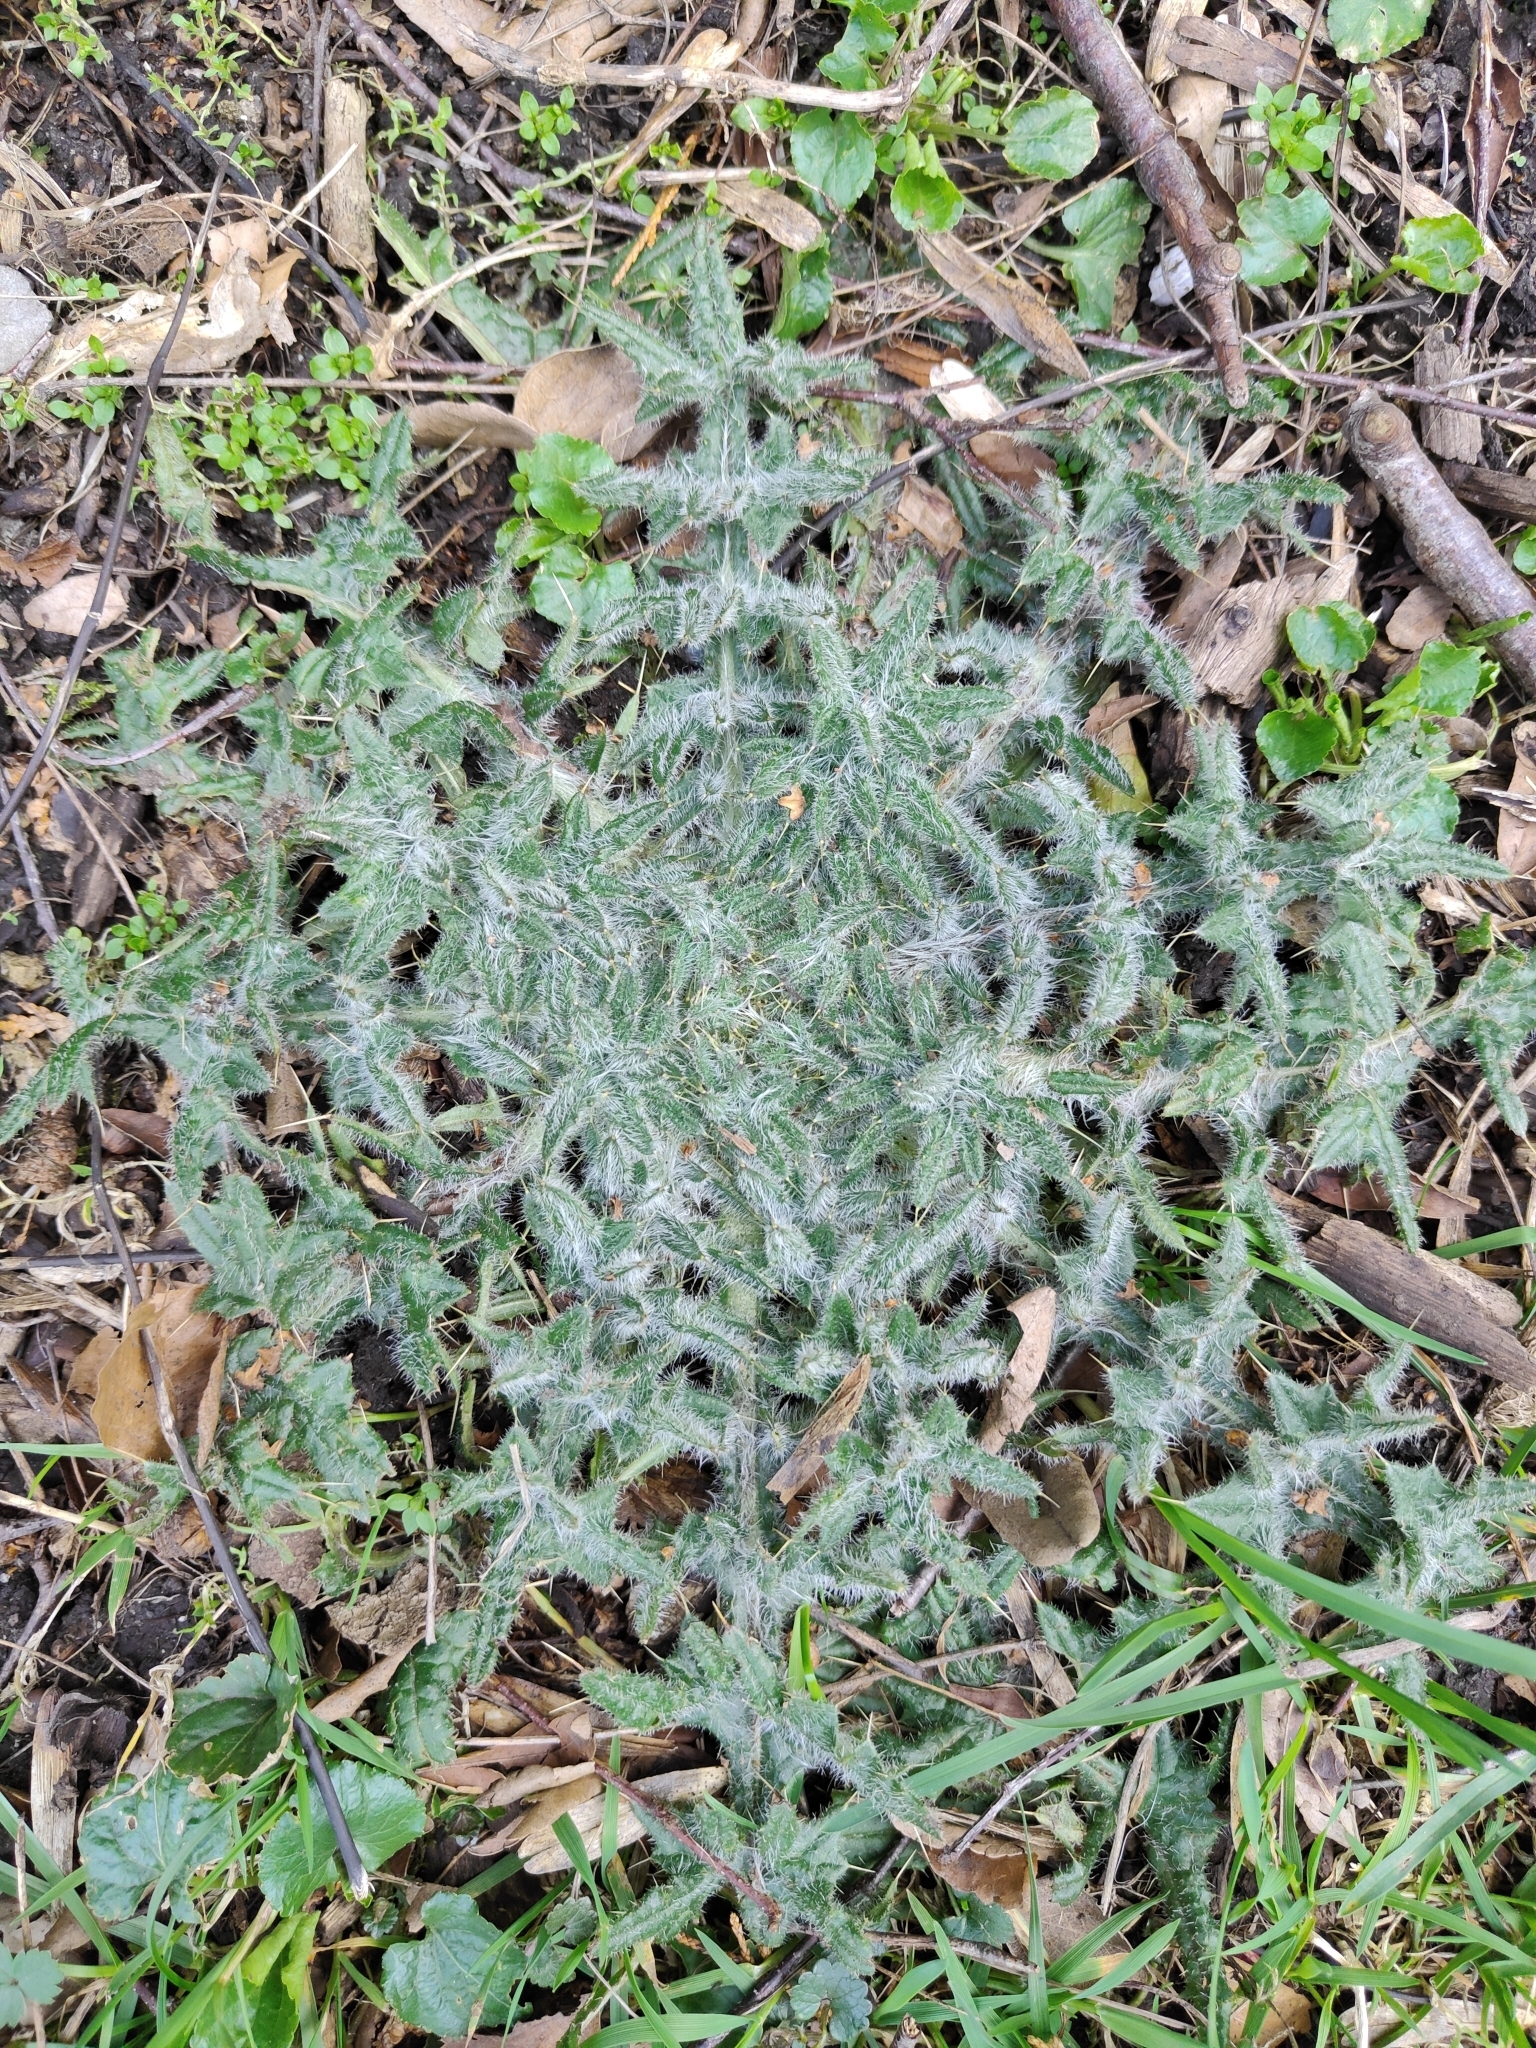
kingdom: Plantae
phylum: Tracheophyta
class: Magnoliopsida
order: Asterales
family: Asteraceae
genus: Cirsium
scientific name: Cirsium vulgare
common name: Bull thistle
